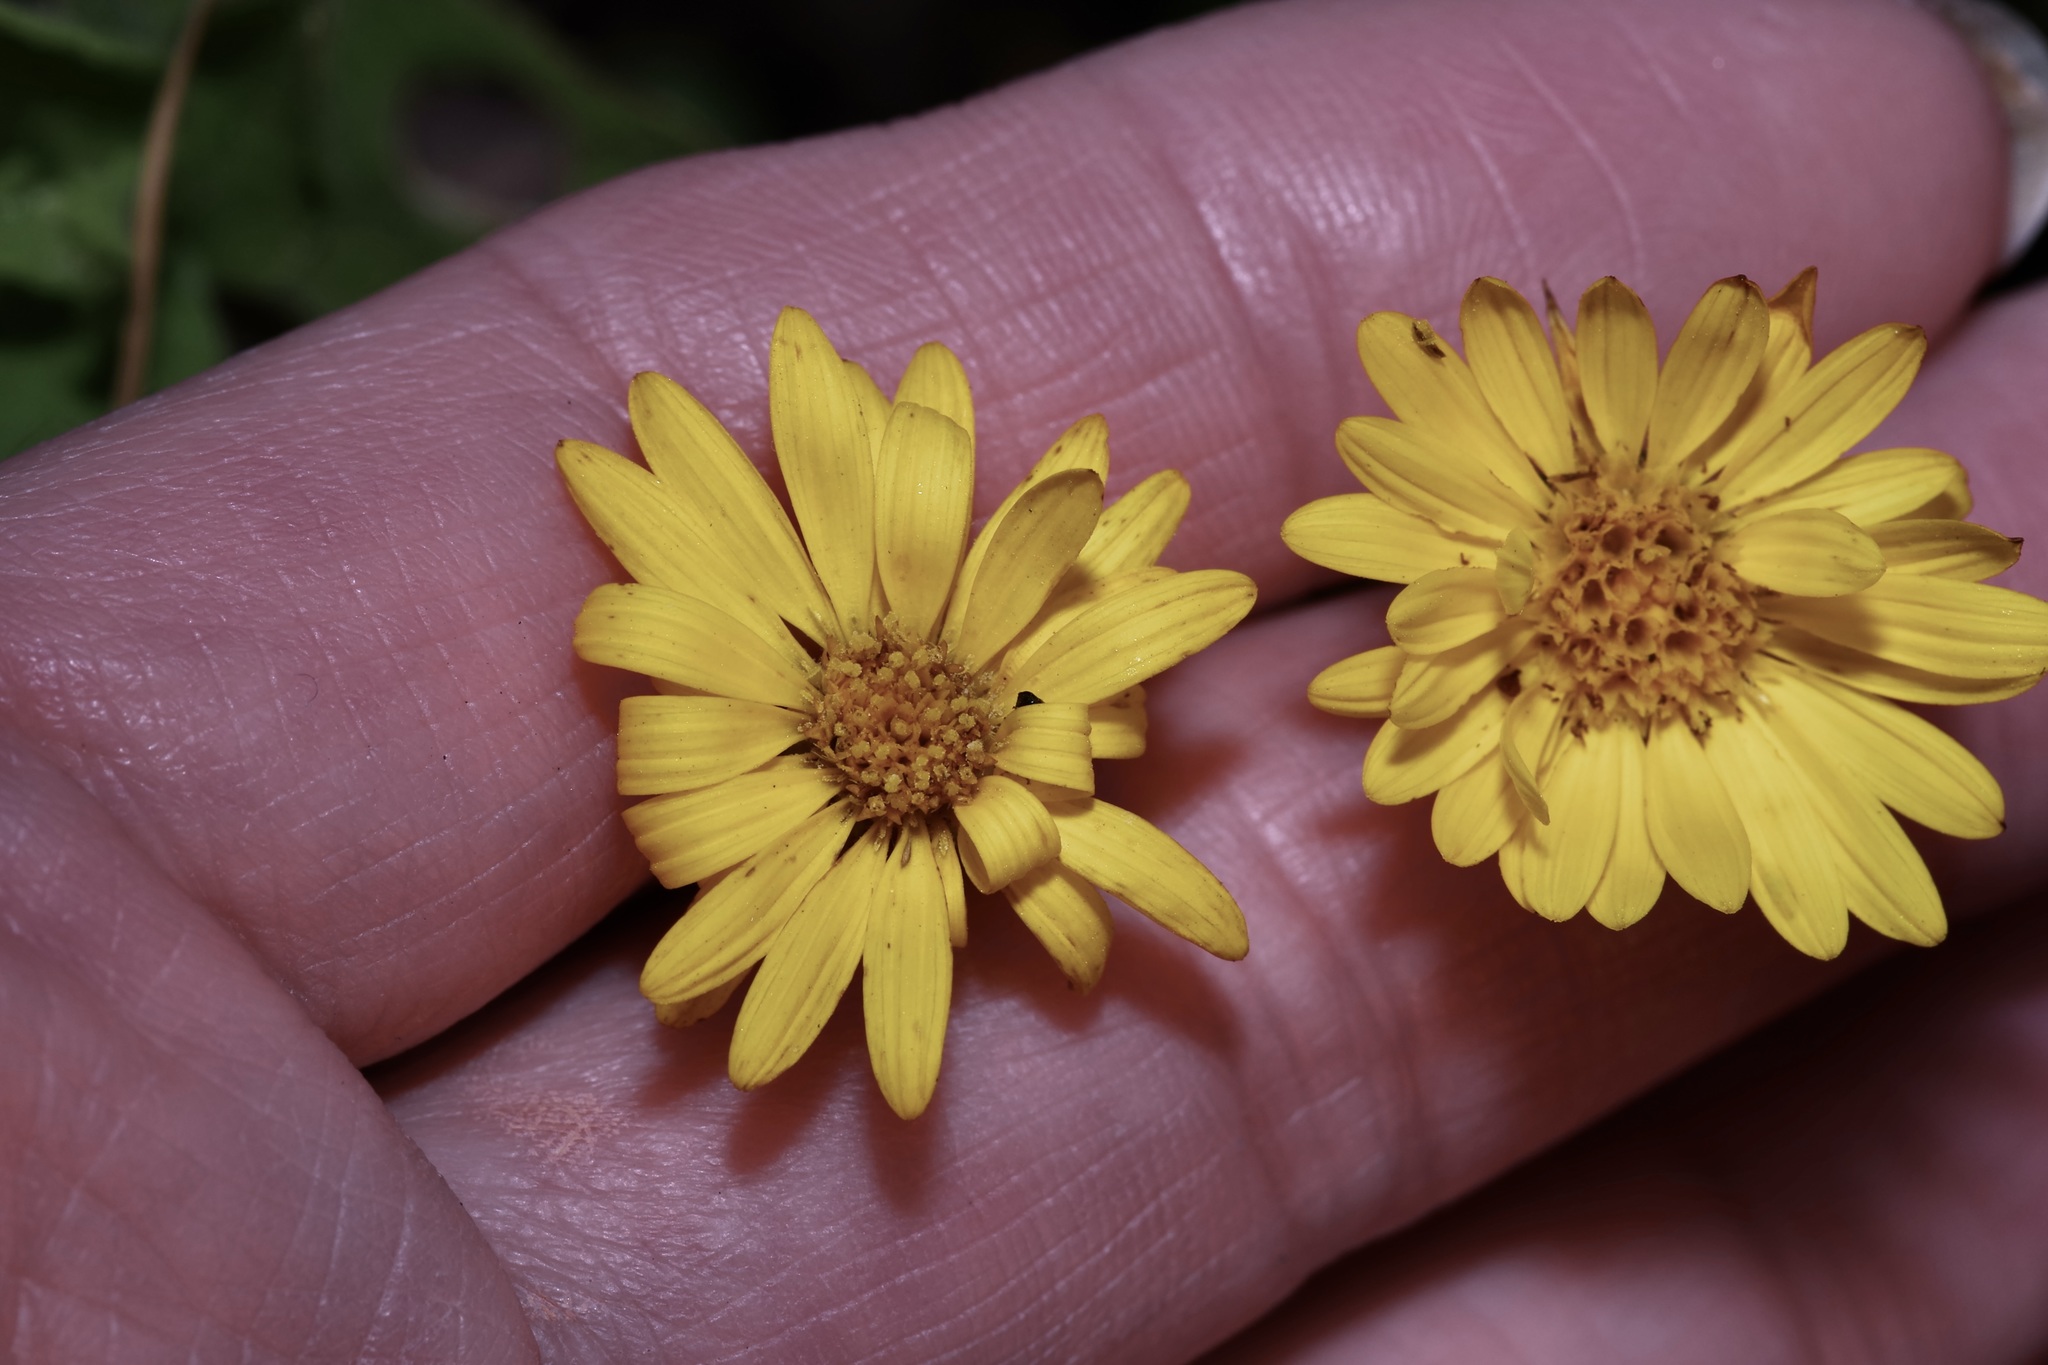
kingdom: Plantae
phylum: Tracheophyta
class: Magnoliopsida
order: Asterales
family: Asteraceae
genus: Heterotheca
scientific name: Heterotheca subaxillaris
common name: Camphorweed
